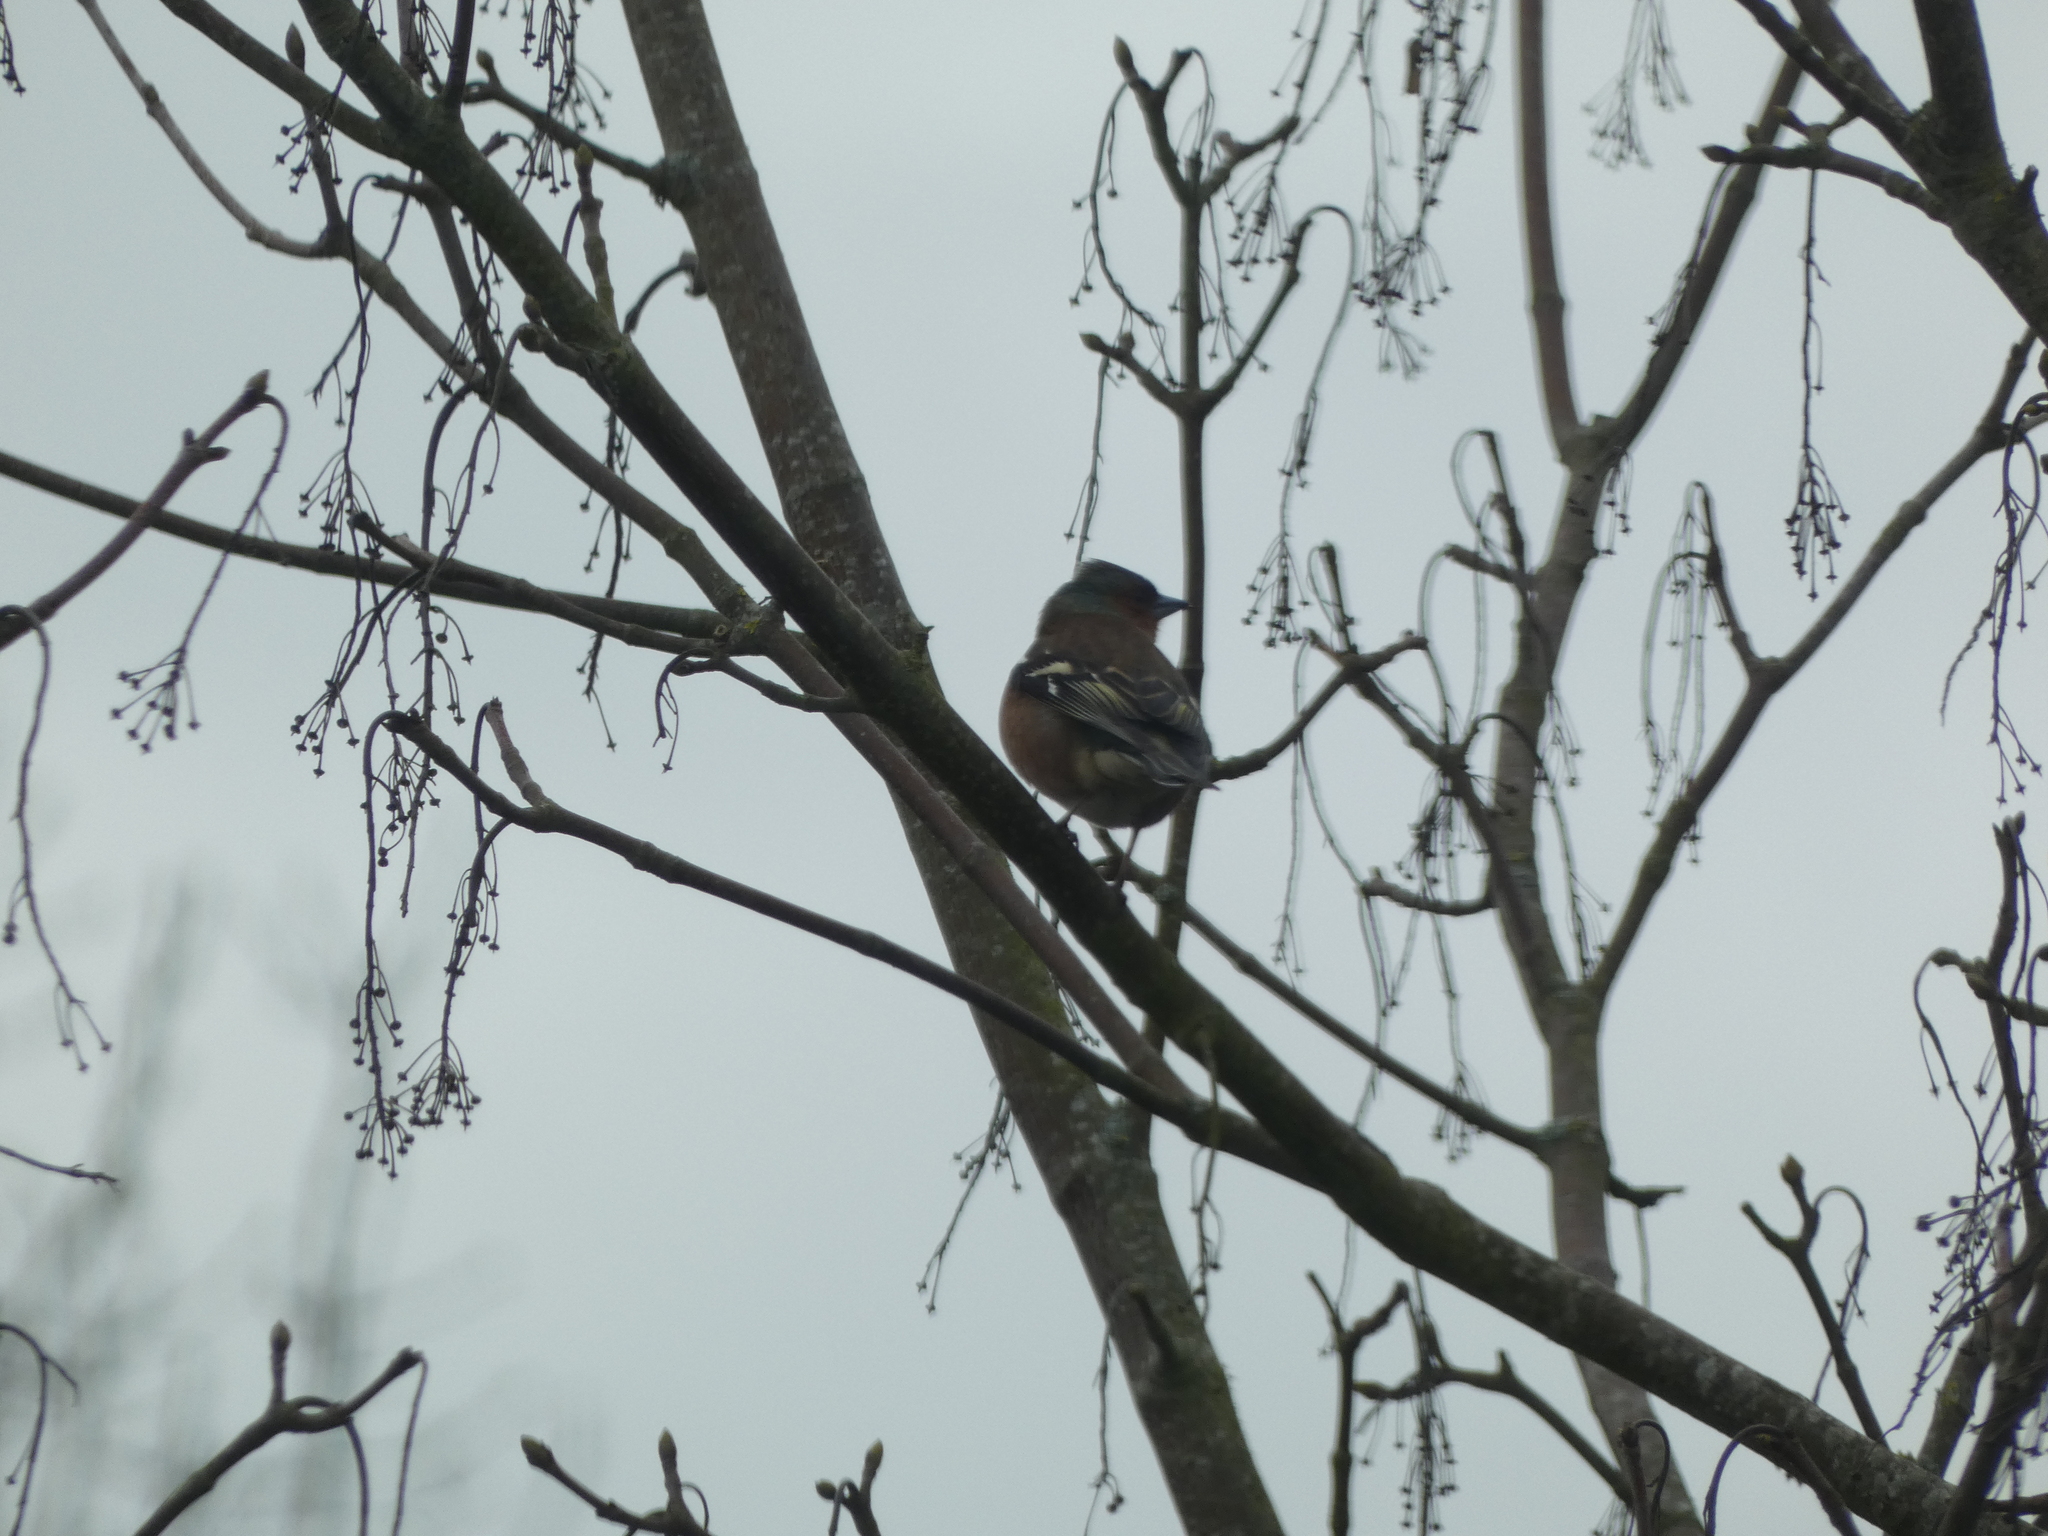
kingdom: Animalia
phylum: Chordata
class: Aves
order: Passeriformes
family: Fringillidae
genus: Fringilla
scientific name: Fringilla coelebs
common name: Common chaffinch
